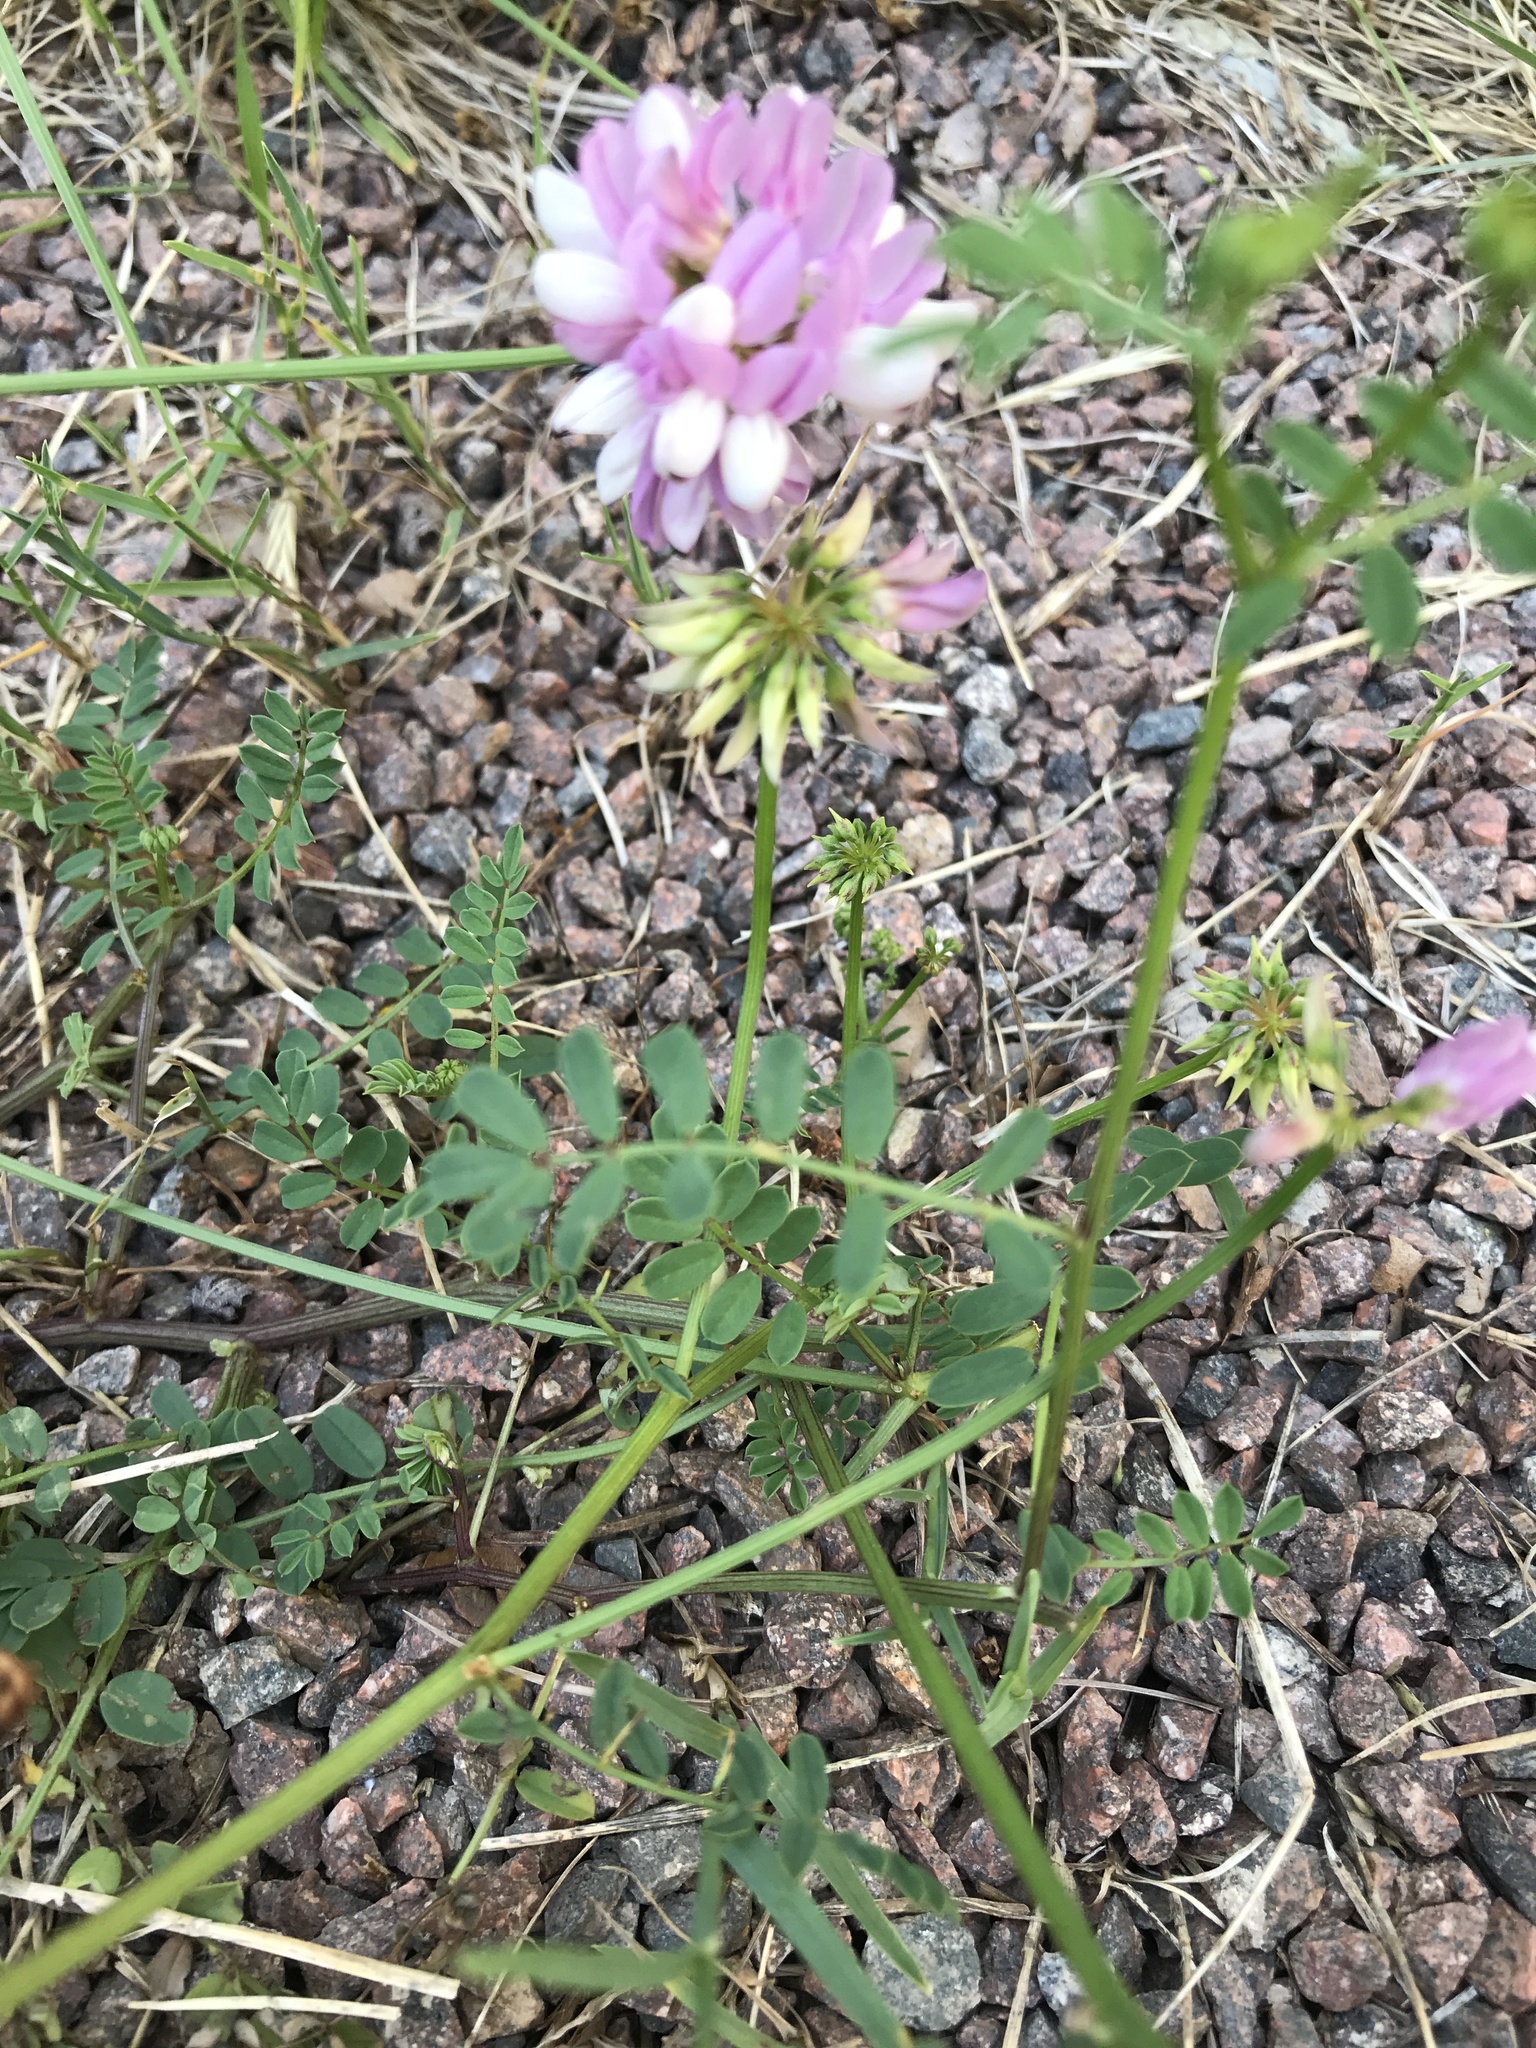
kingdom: Plantae
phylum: Tracheophyta
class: Magnoliopsida
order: Fabales
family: Fabaceae
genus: Coronilla
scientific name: Coronilla varia
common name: Crownvetch
